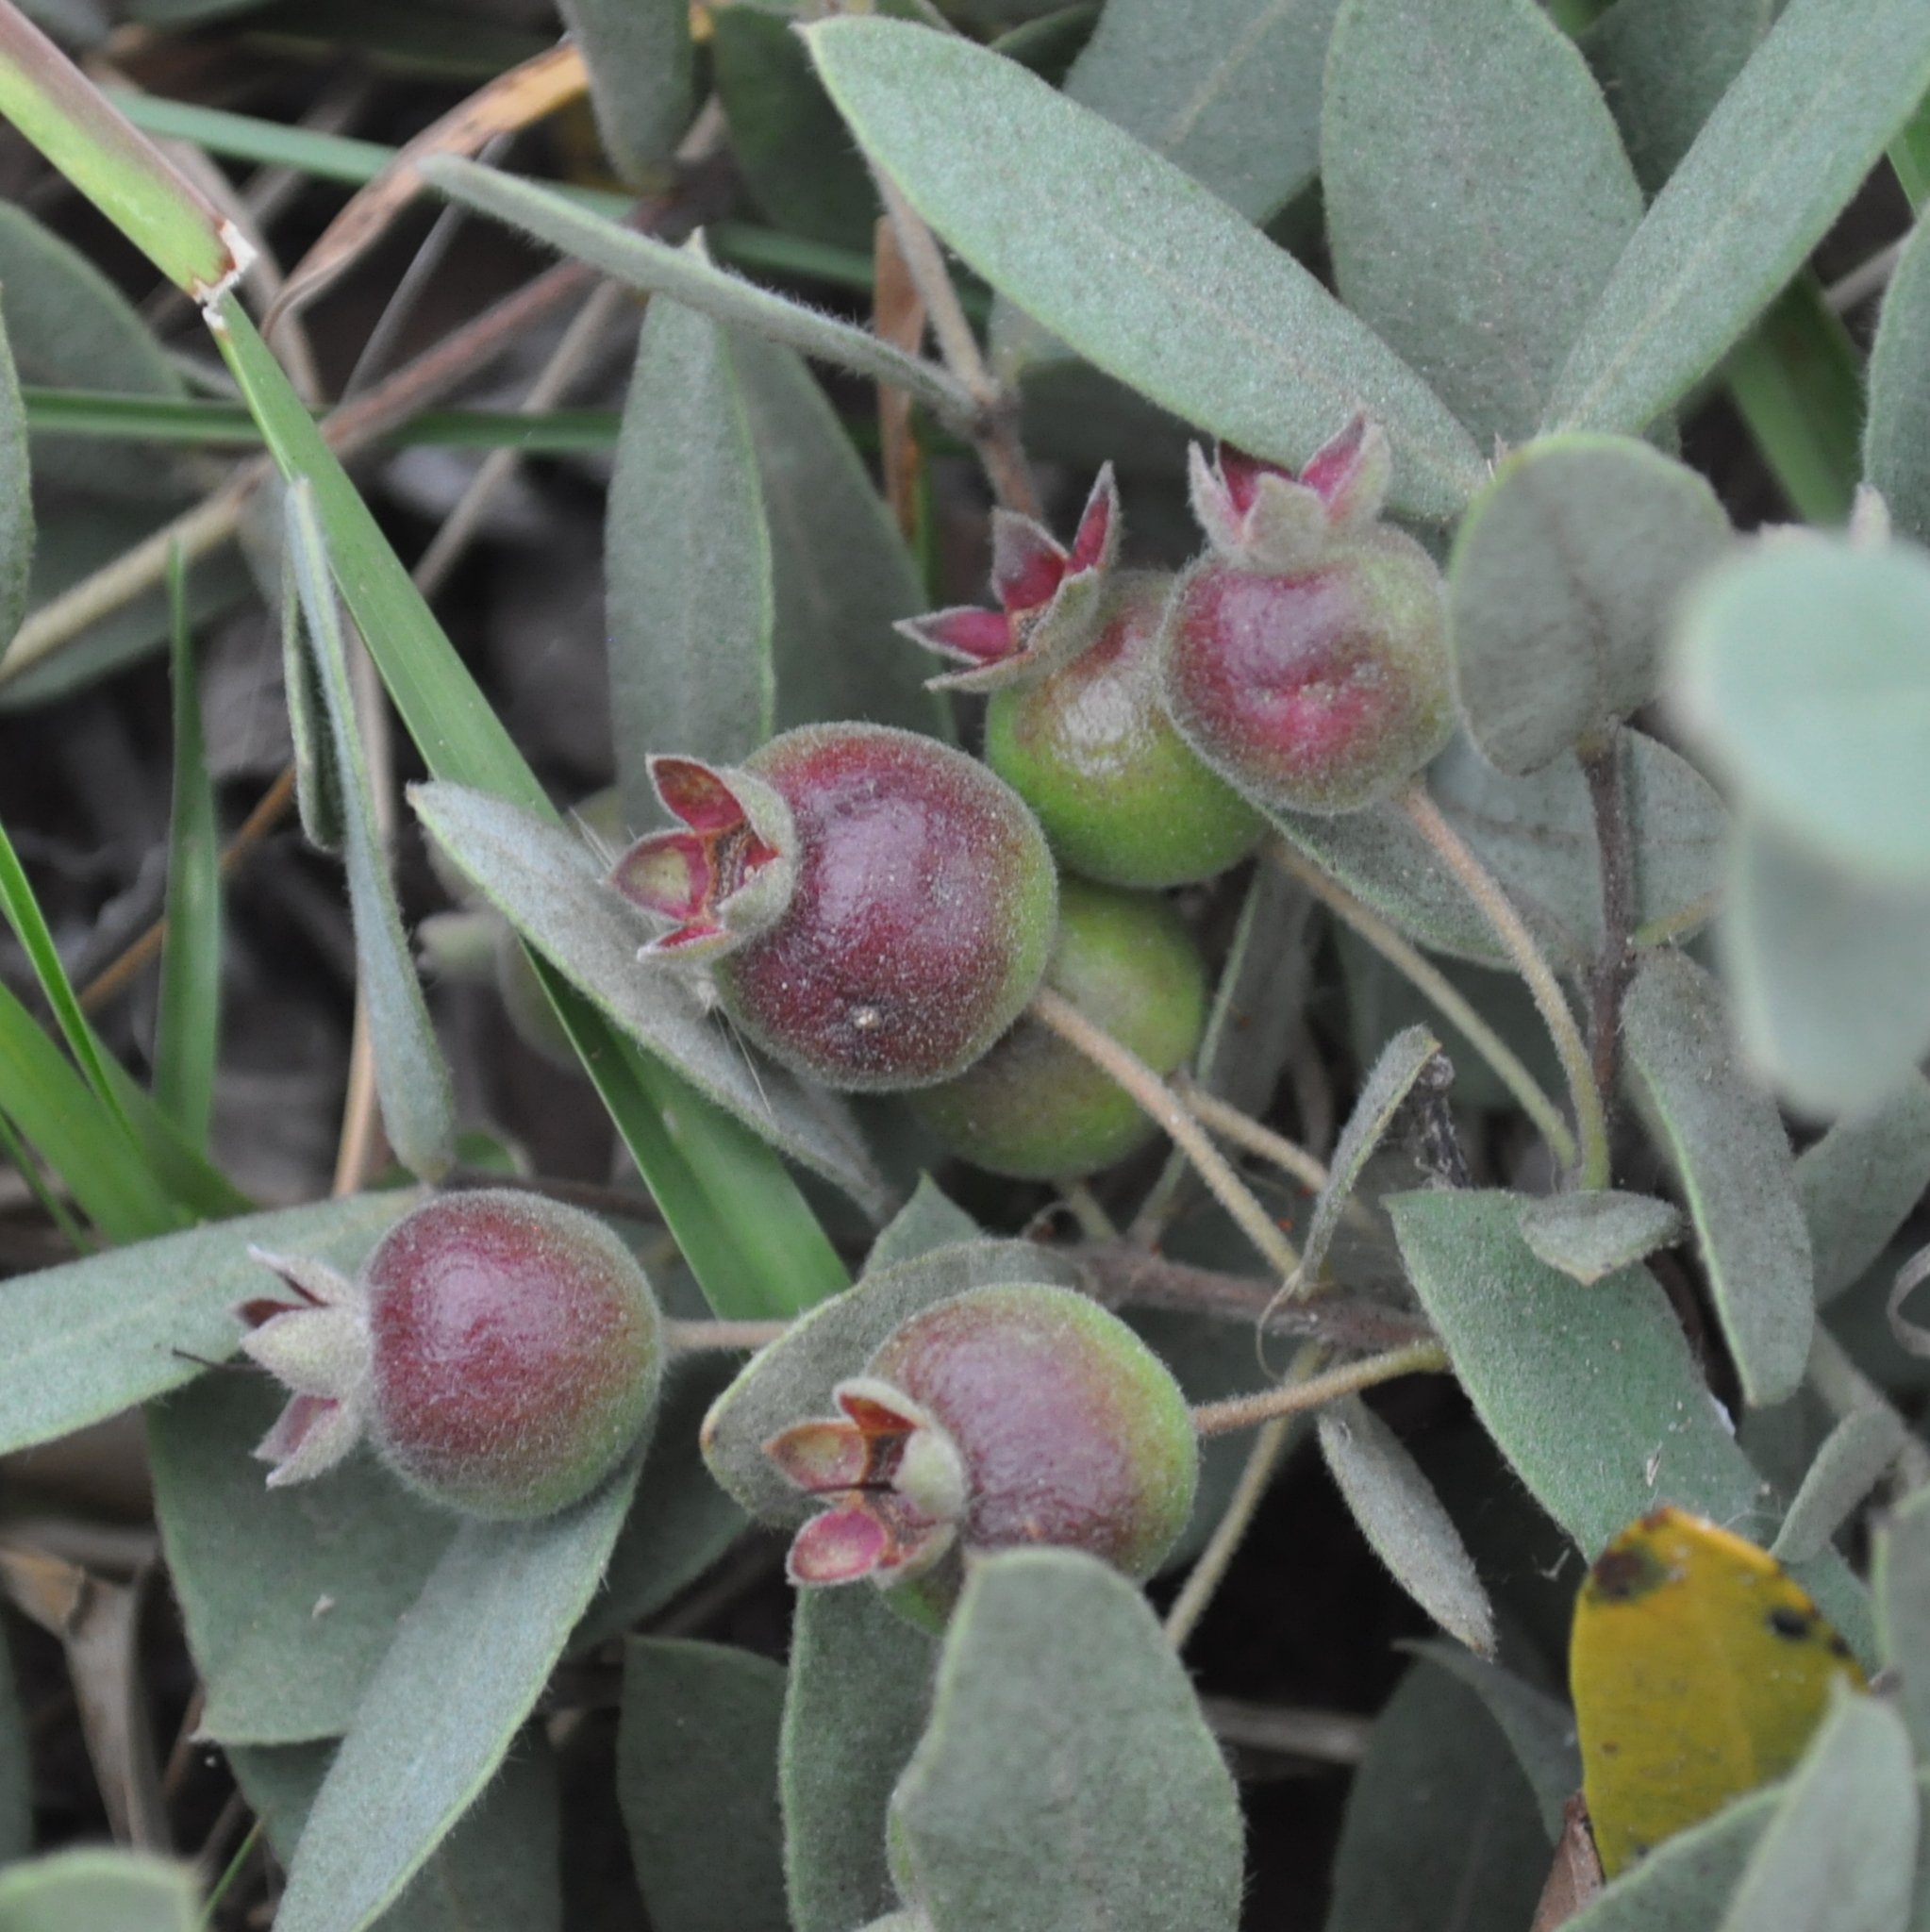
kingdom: Plantae
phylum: Tracheophyta
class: Magnoliopsida
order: Myrtales
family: Myrtaceae
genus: Psidium
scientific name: Psidium salutare
